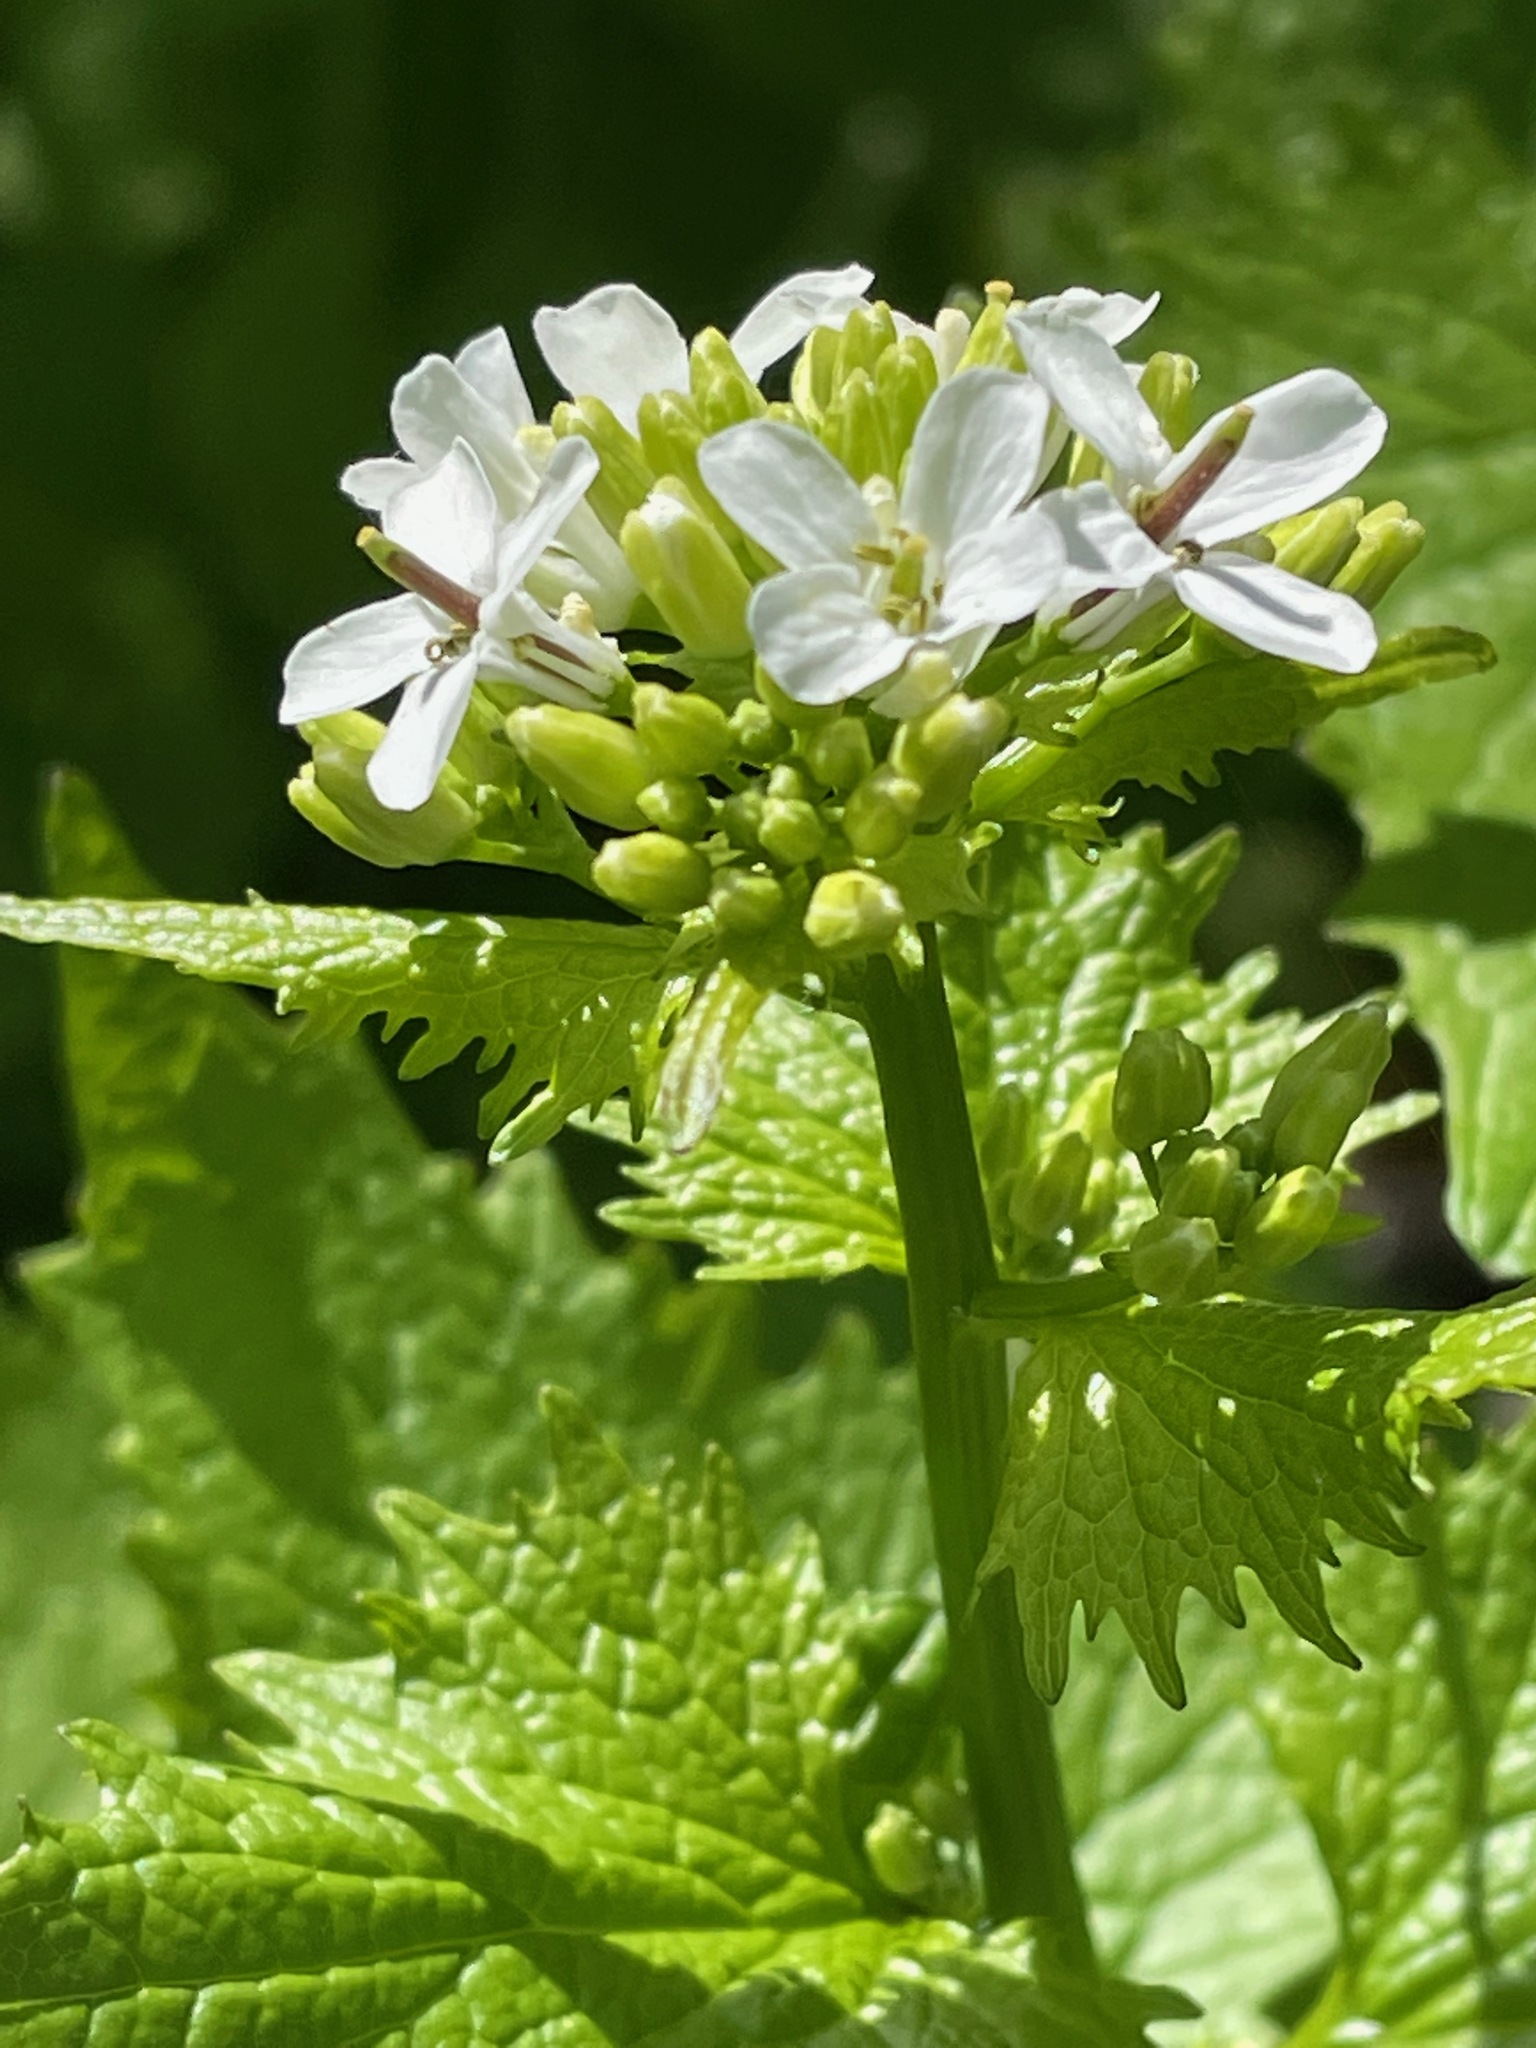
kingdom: Plantae
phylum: Tracheophyta
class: Magnoliopsida
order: Brassicales
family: Brassicaceae
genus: Alliaria
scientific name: Alliaria petiolata
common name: Garlic mustard
